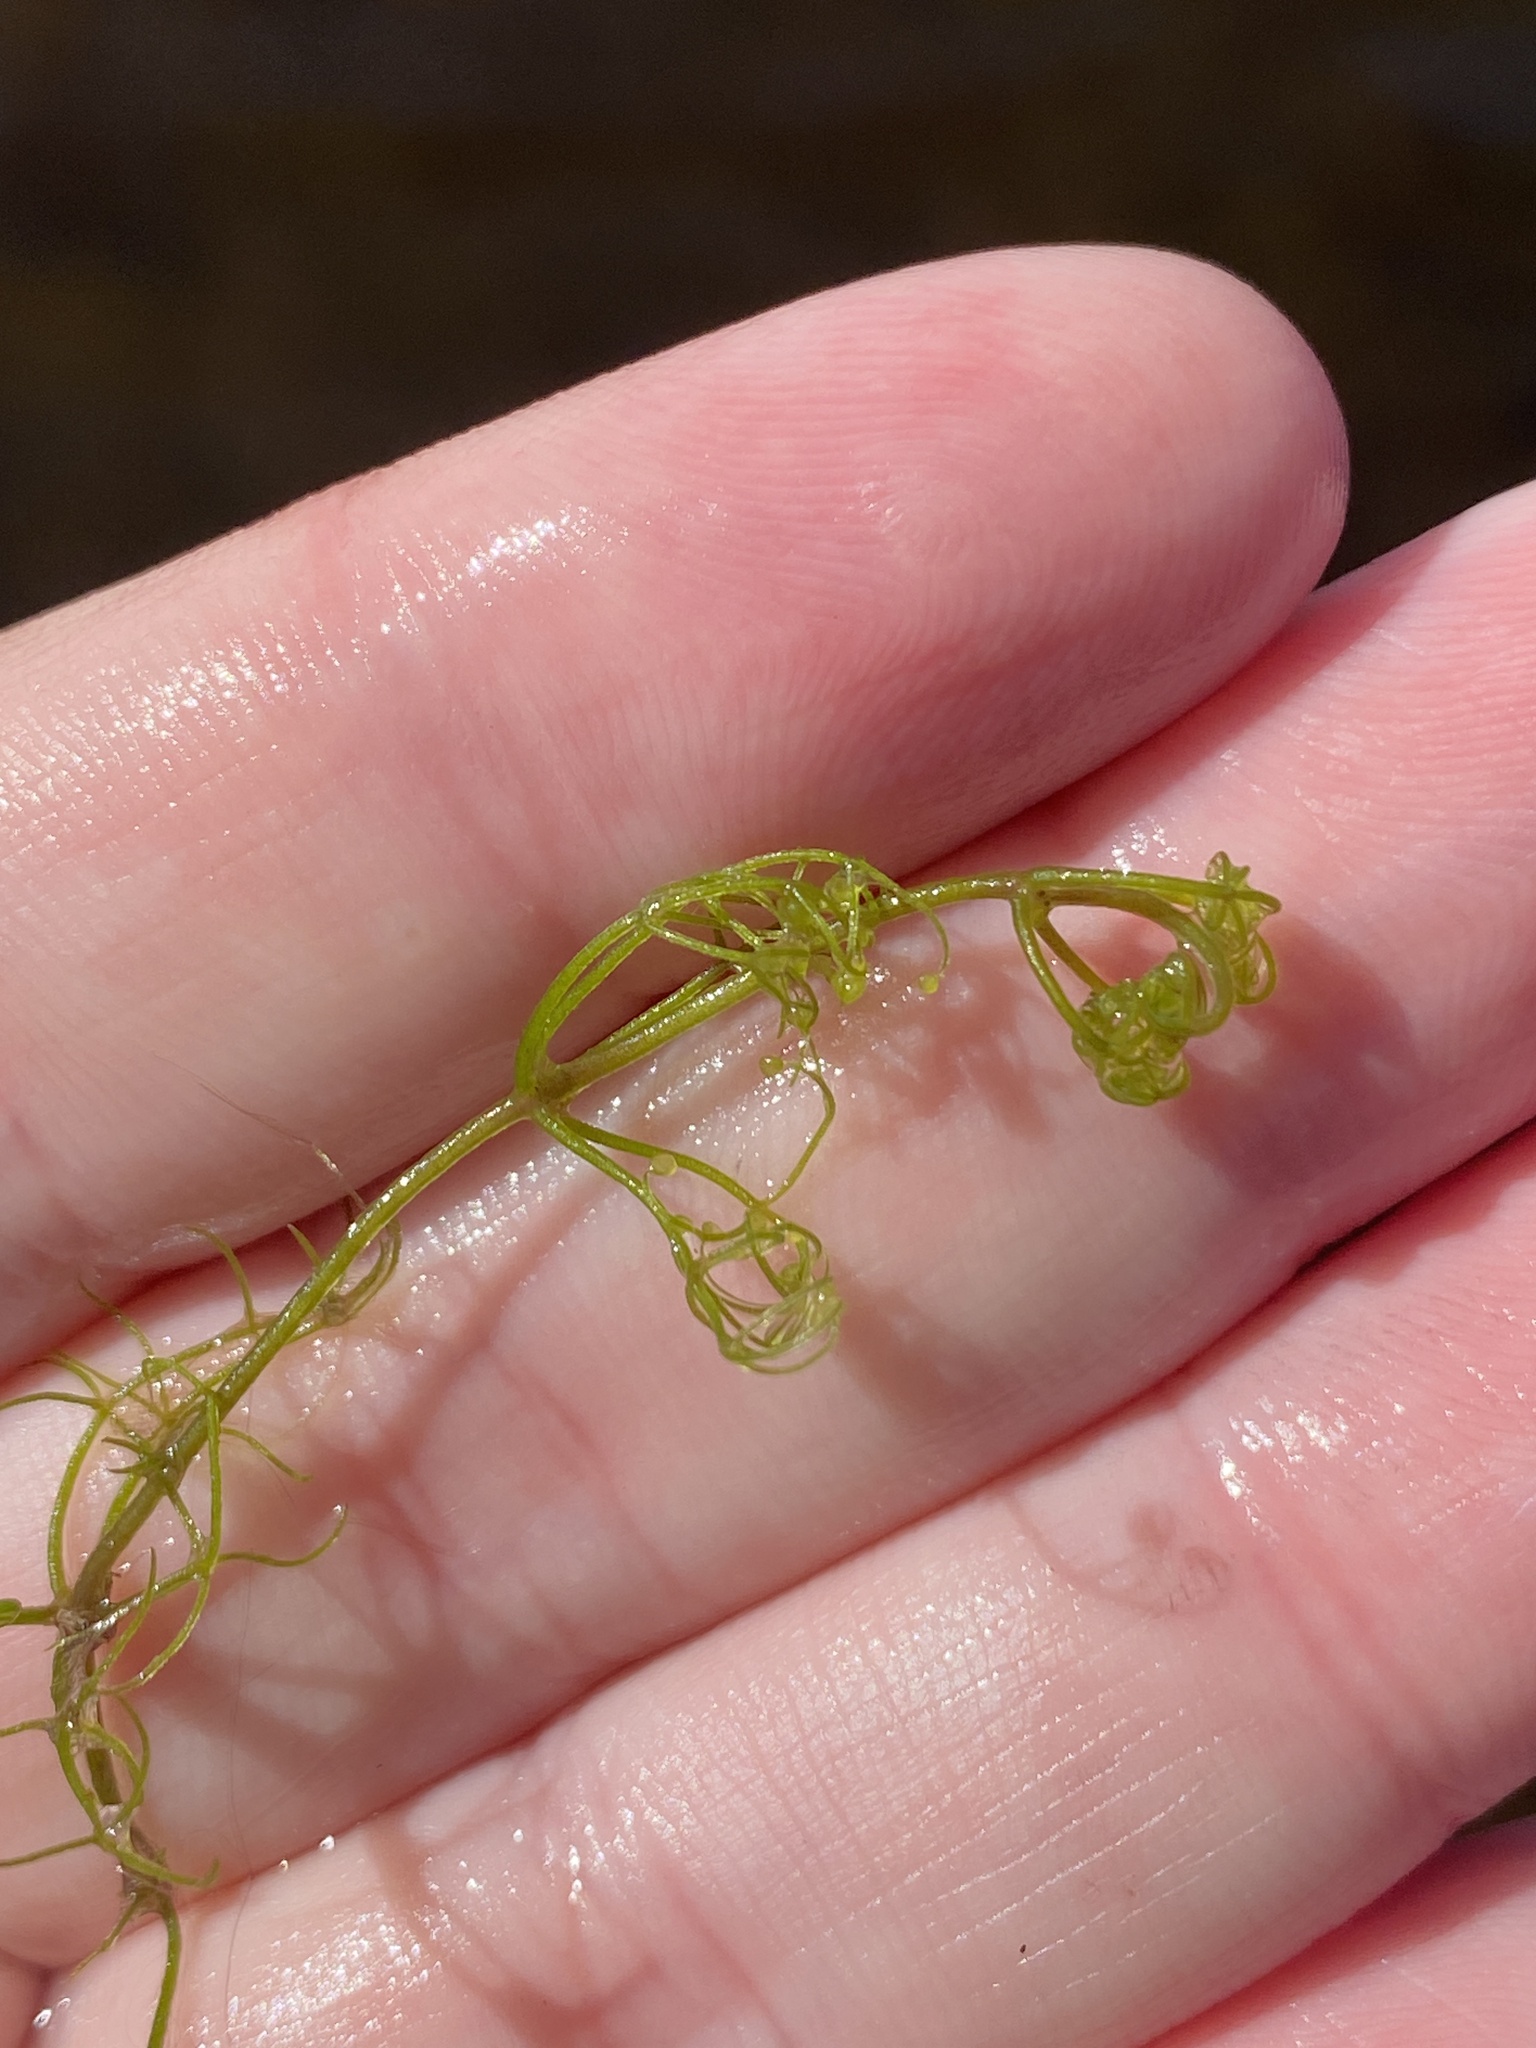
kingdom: Plantae
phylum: Tracheophyta
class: Magnoliopsida
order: Lamiales
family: Lentibulariaceae
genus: Utricularia
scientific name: Utricularia purpurea
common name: Eastern purple bladderwort
